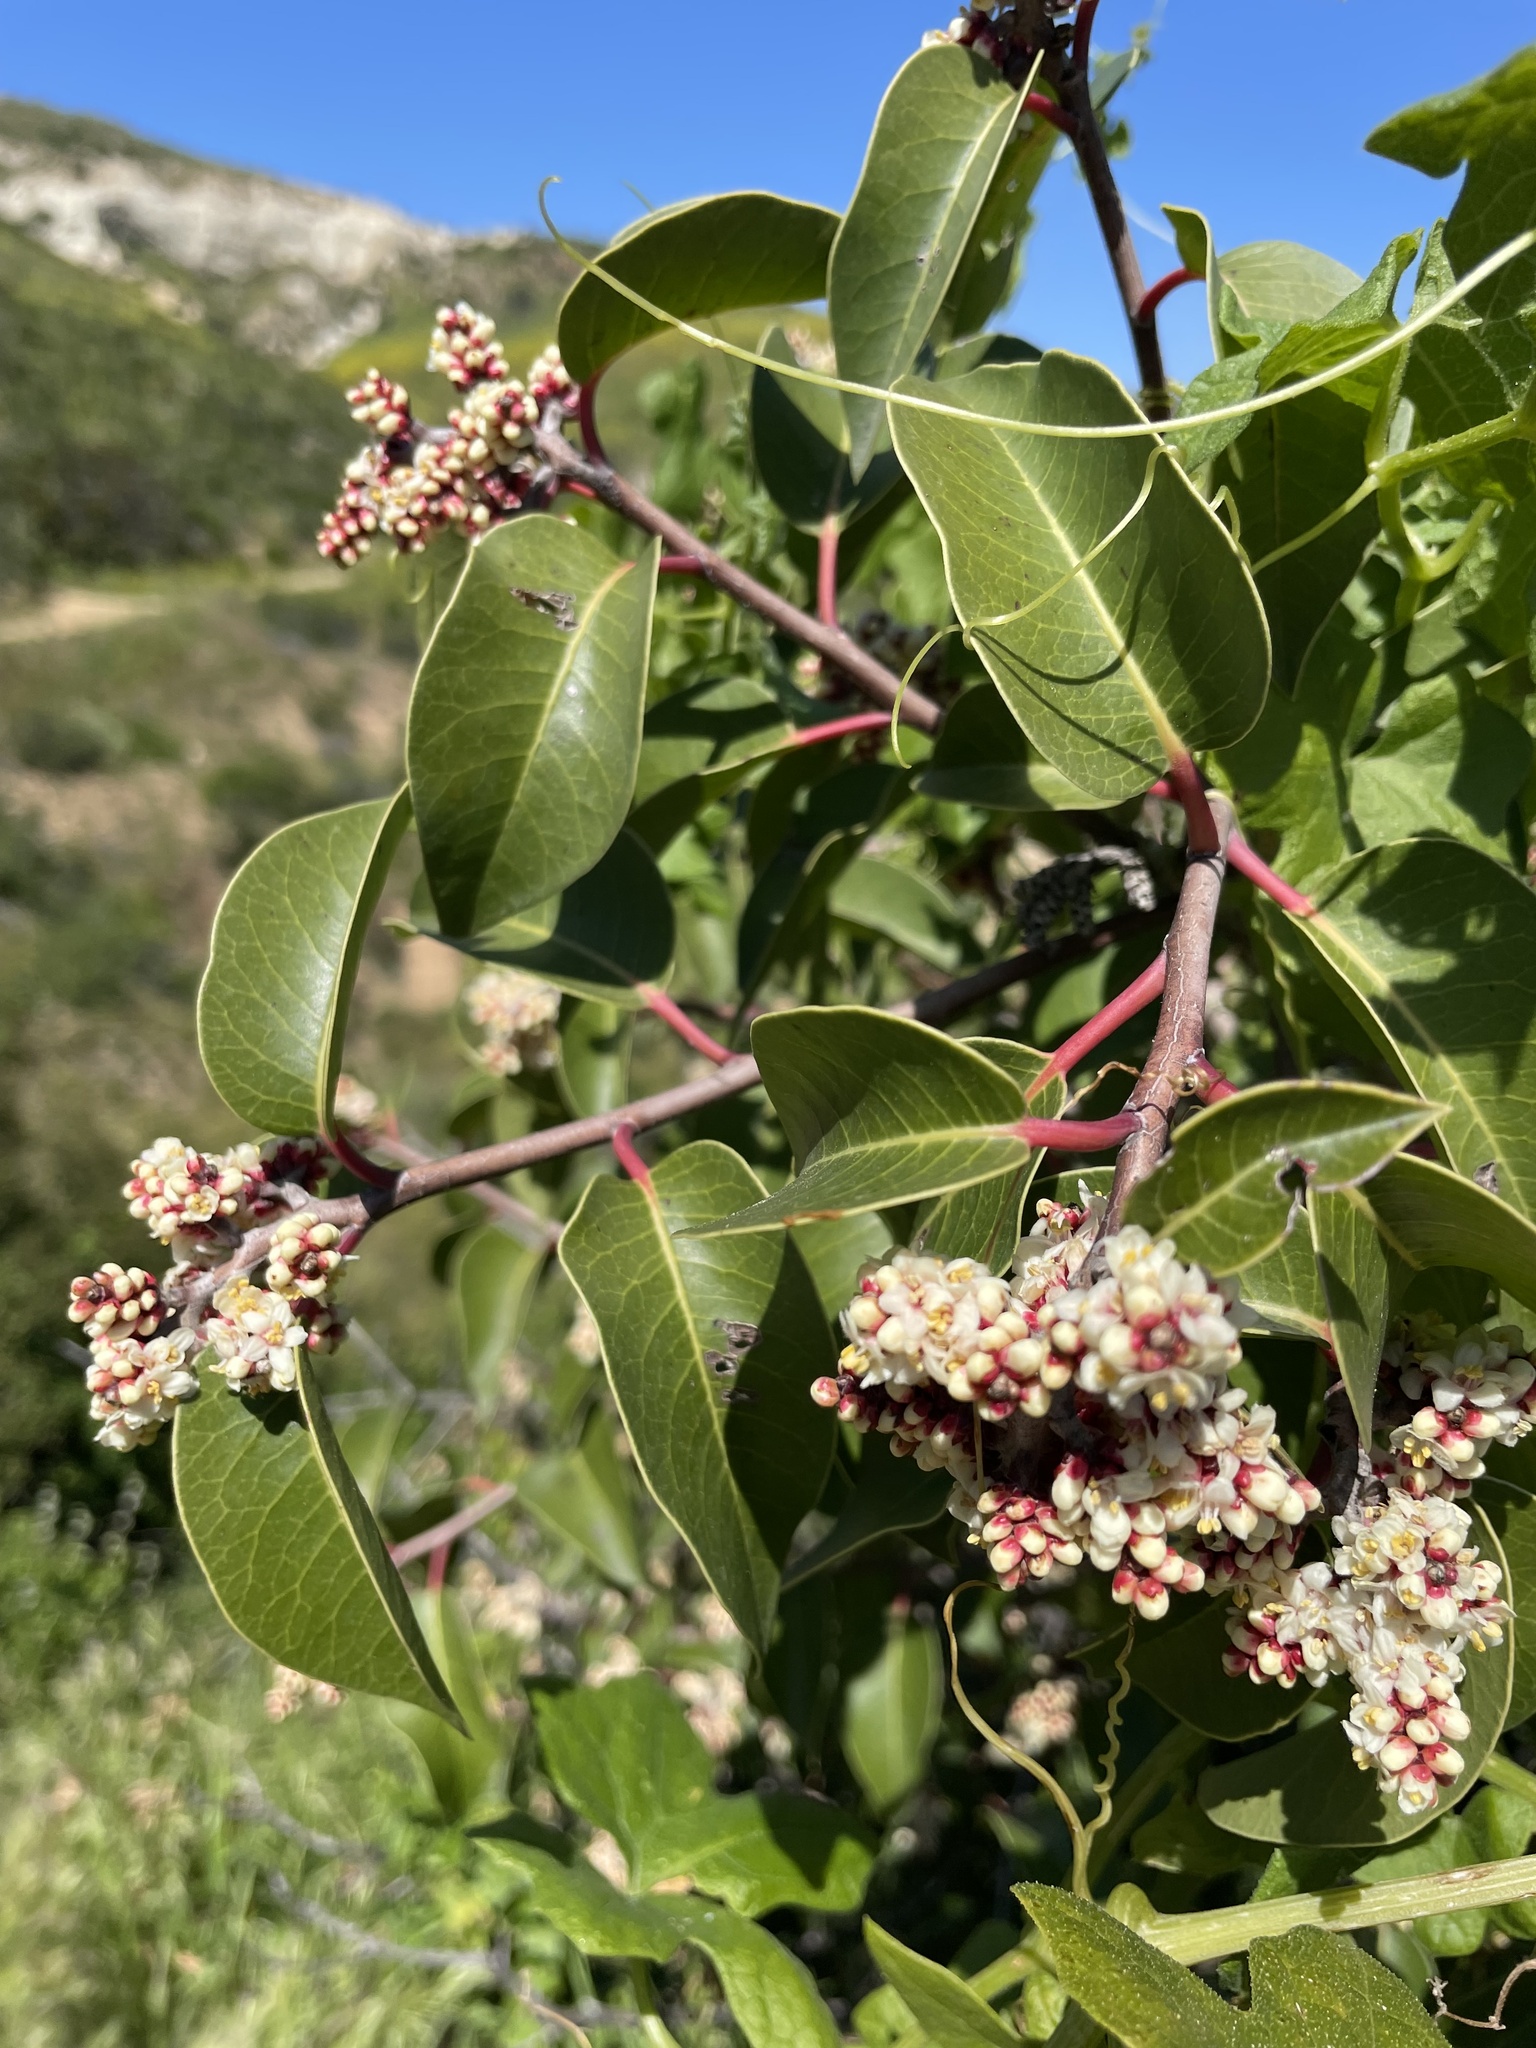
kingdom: Plantae
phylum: Tracheophyta
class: Magnoliopsida
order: Sapindales
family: Anacardiaceae
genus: Rhus
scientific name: Rhus ovata
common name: Sugar sumac
